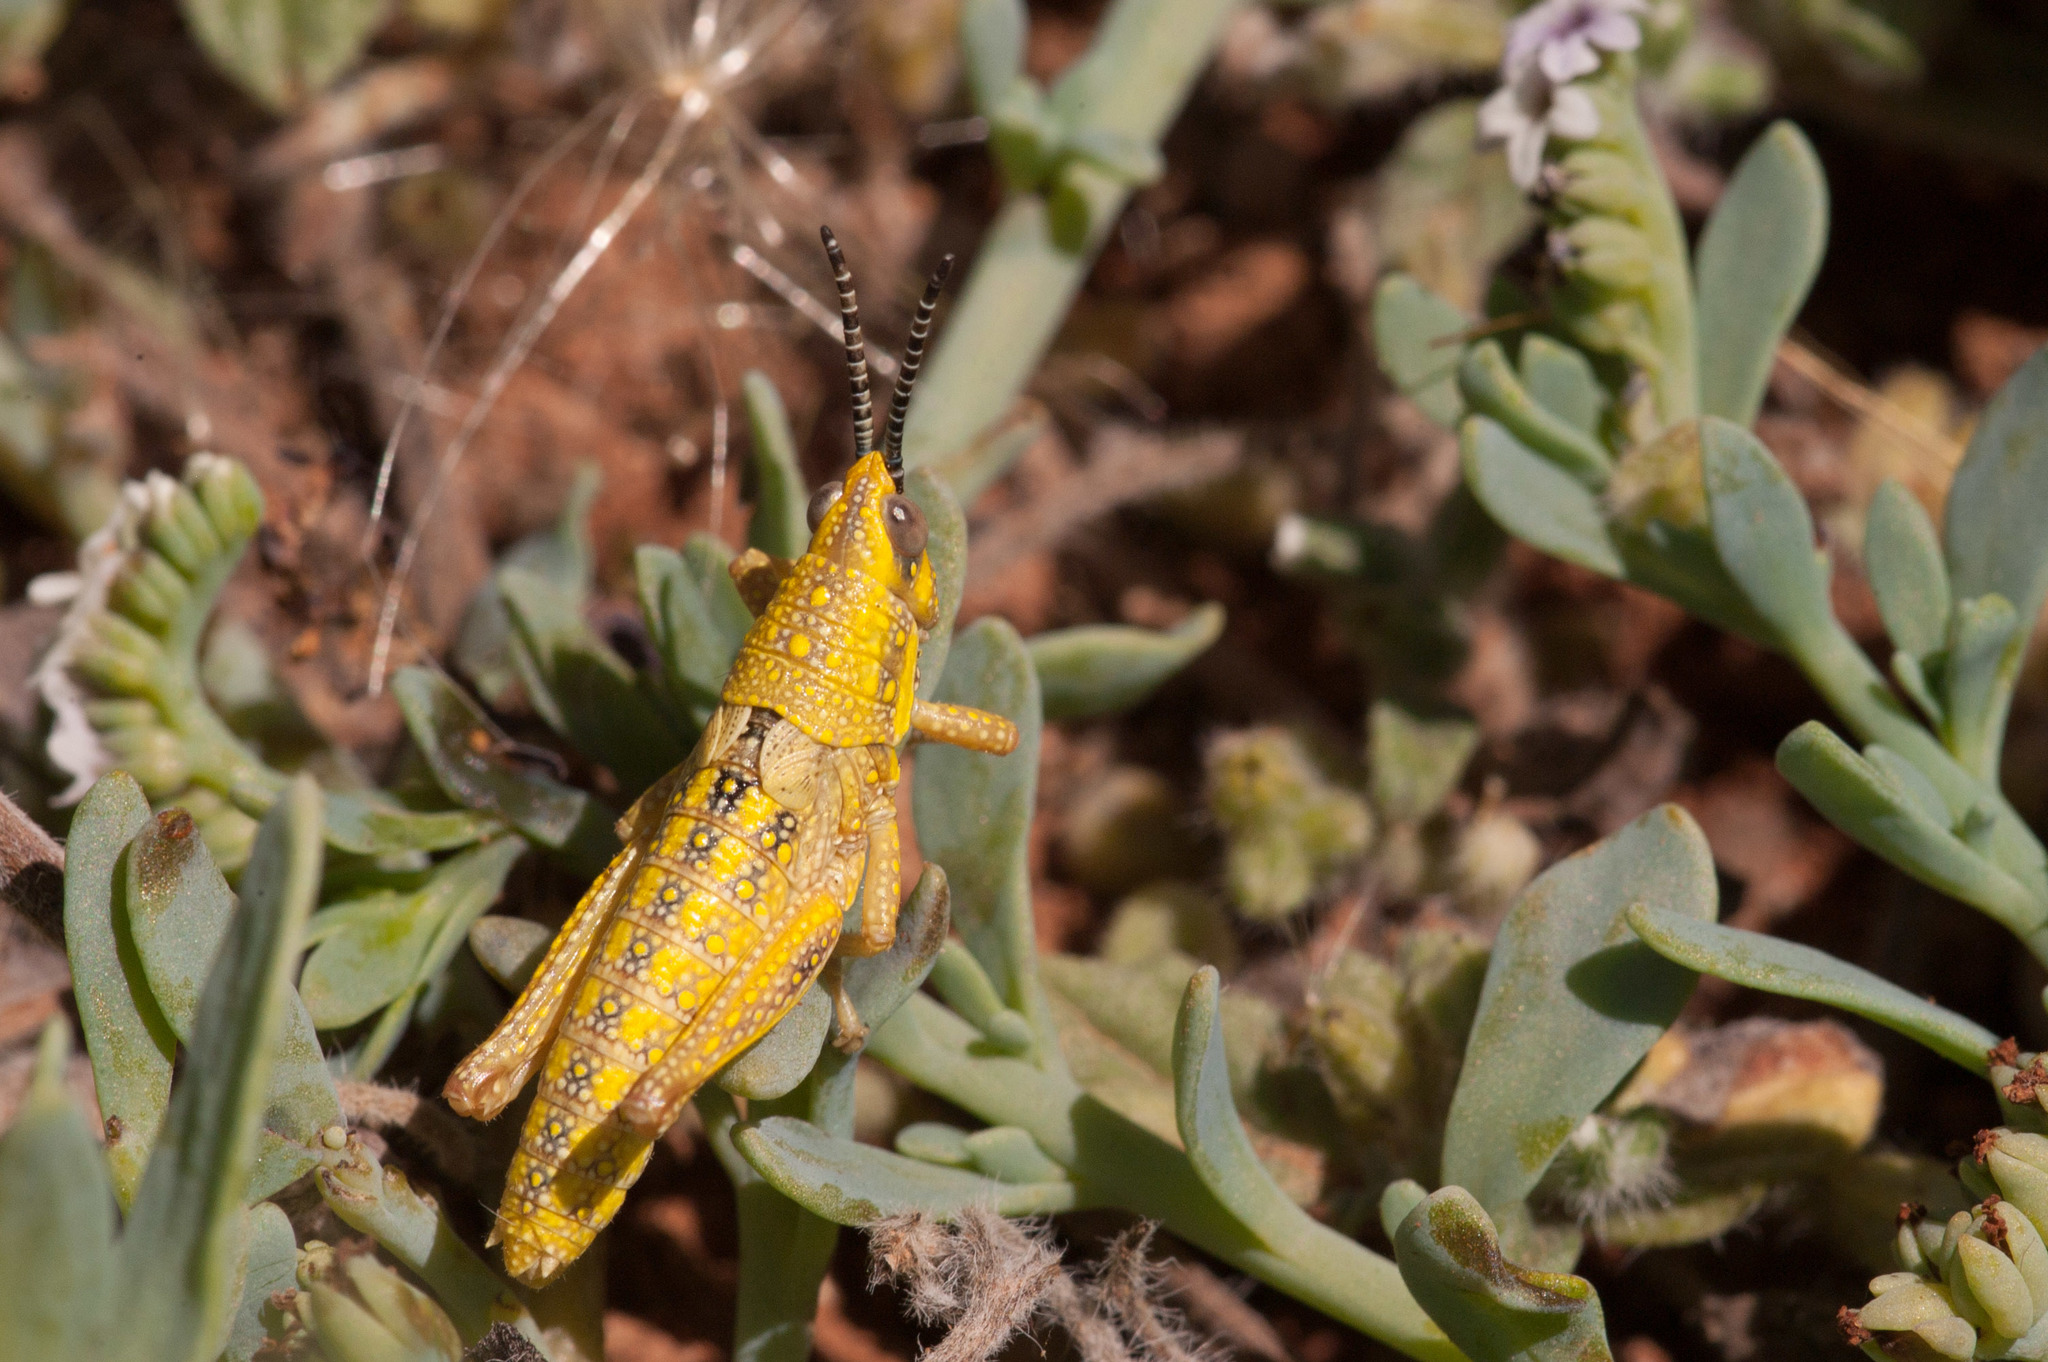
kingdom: Animalia
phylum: Arthropoda
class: Insecta
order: Orthoptera
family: Pyrgomorphidae
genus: Monistria
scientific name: Monistria discrepans
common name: Common pyrgomorph
